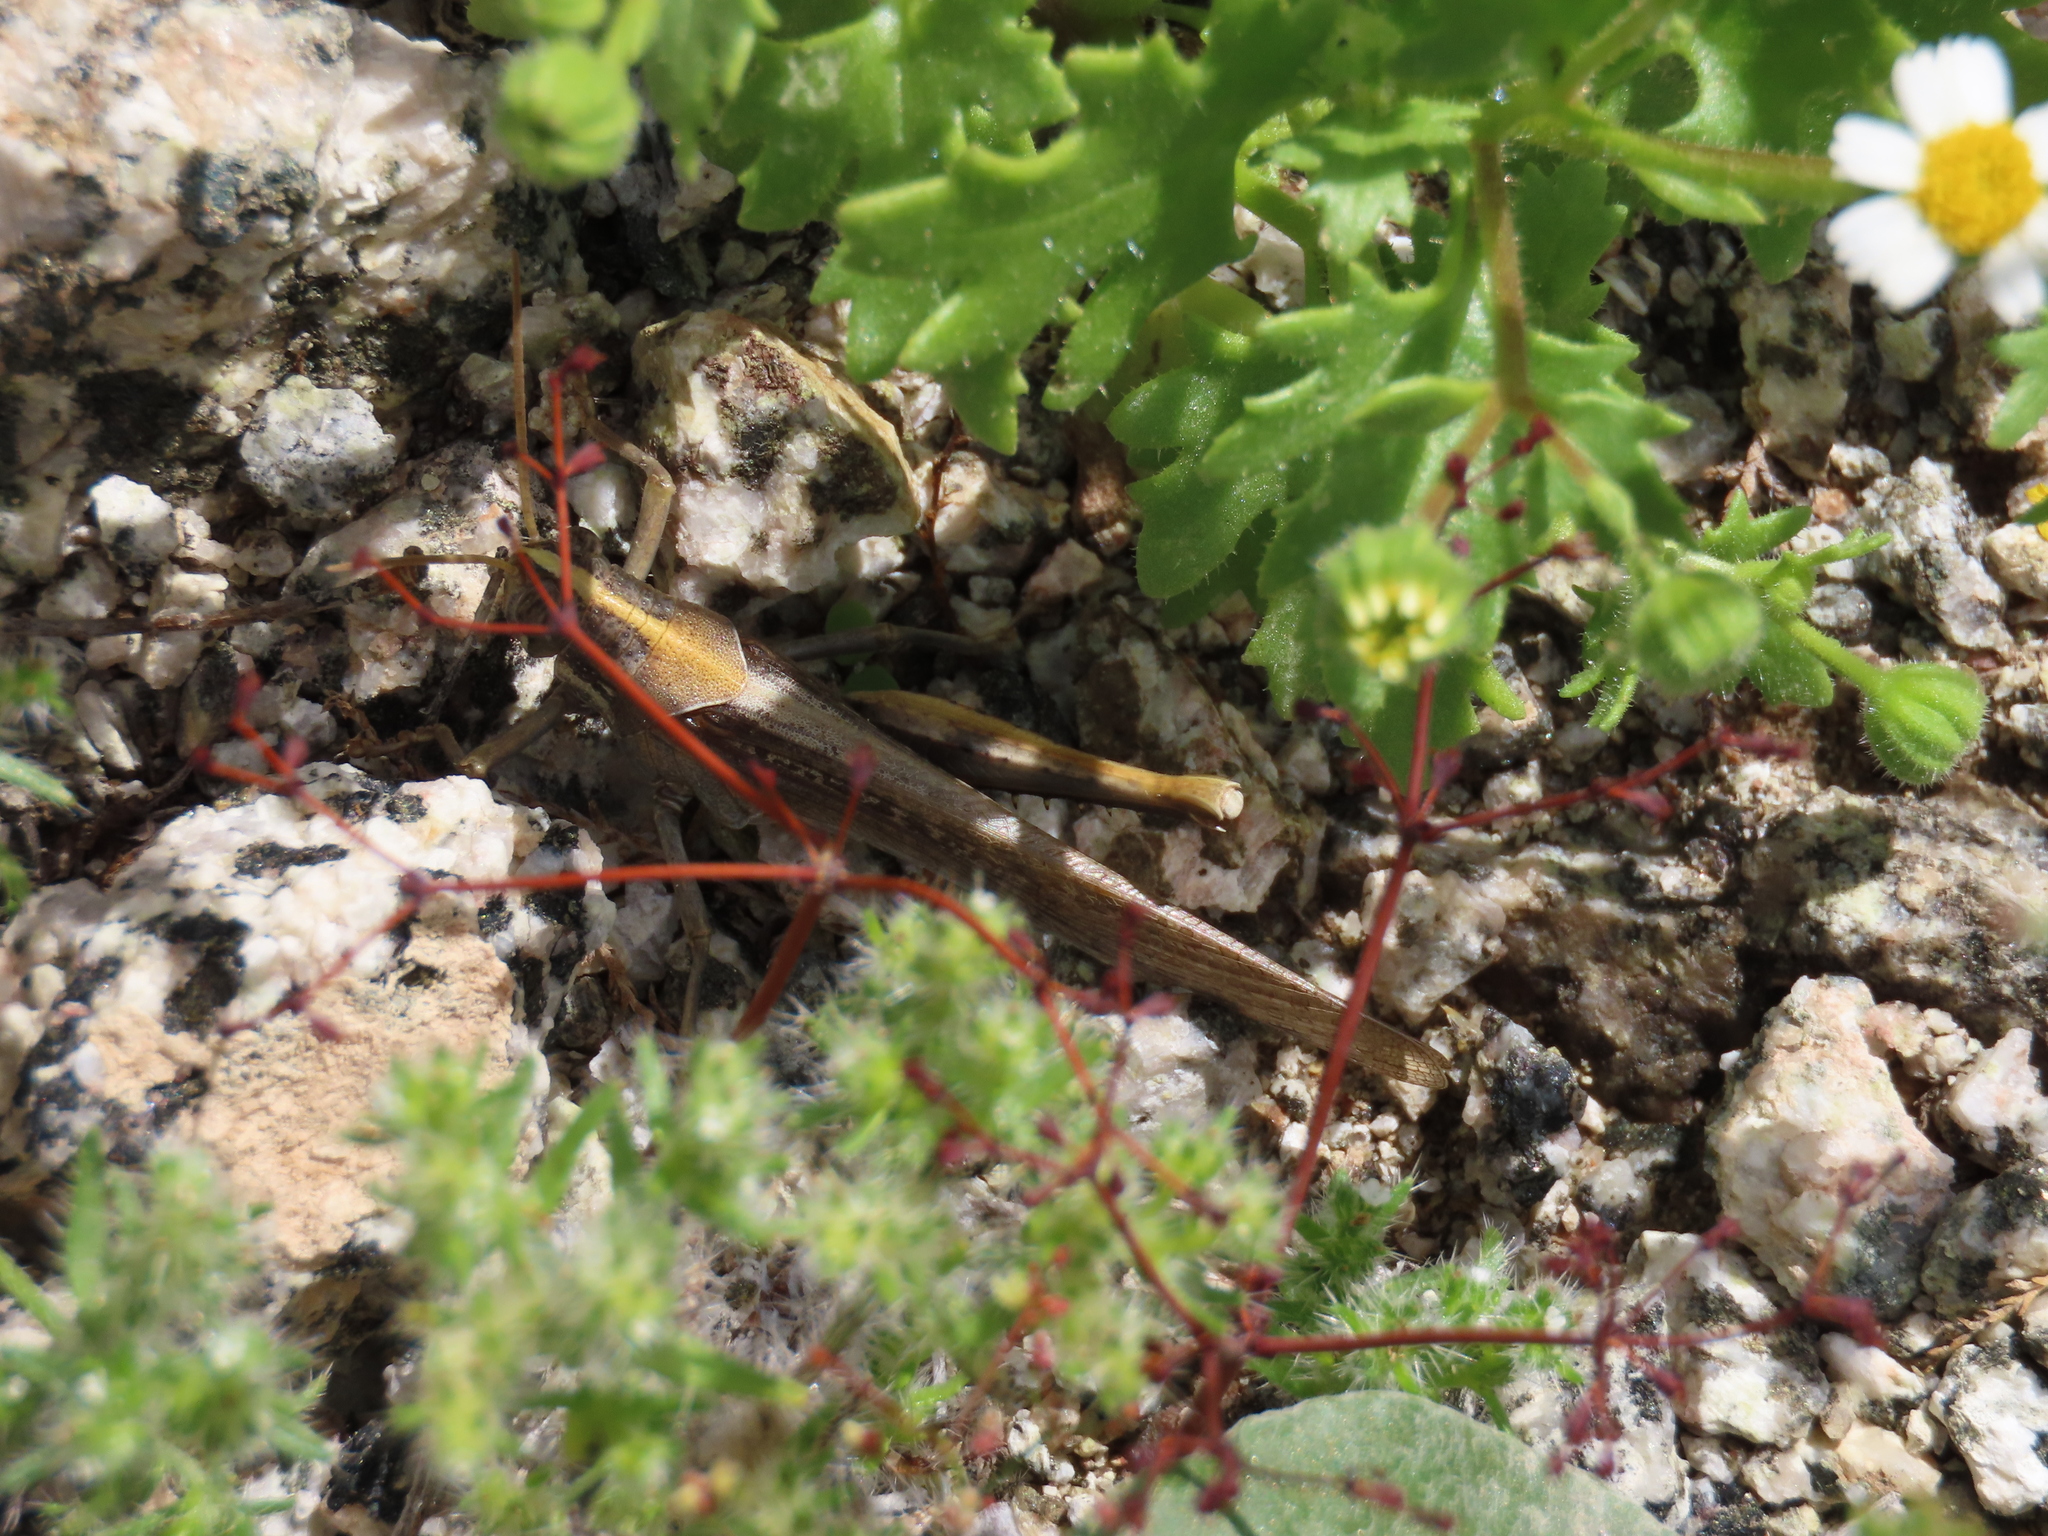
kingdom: Animalia
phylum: Arthropoda
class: Insecta
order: Orthoptera
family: Acrididae
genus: Schistocerca
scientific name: Schistocerca nitens
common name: Vagrant grasshopper
